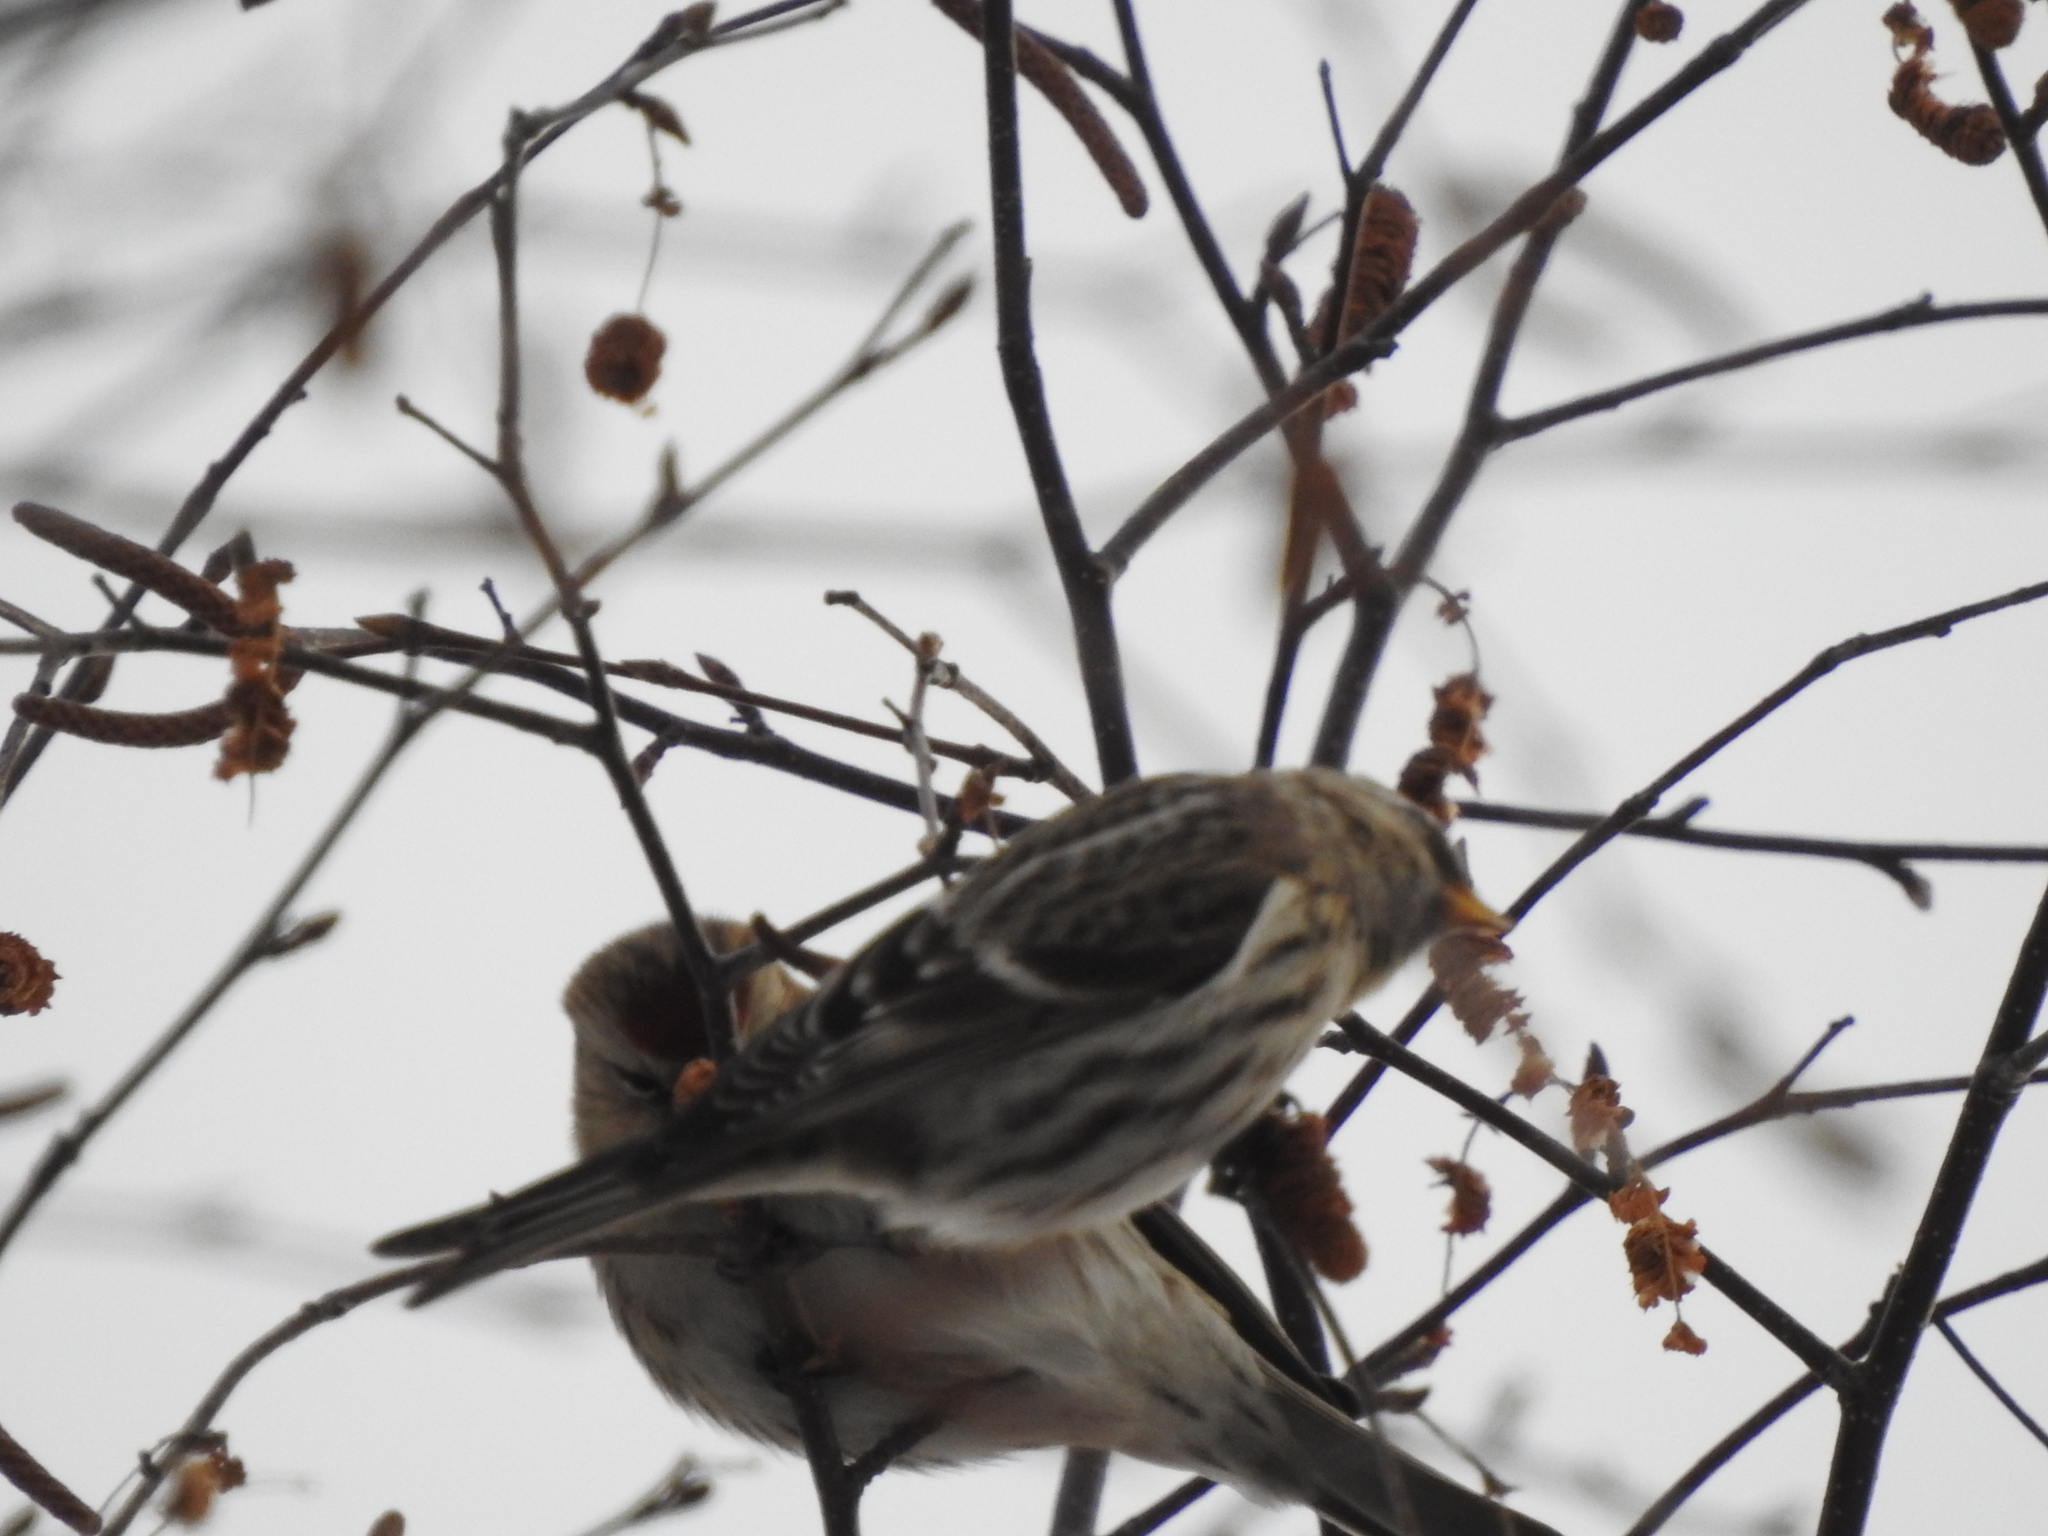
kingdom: Animalia
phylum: Chordata
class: Aves
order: Passeriformes
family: Fringillidae
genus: Acanthis
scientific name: Acanthis flammea
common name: Common redpoll
